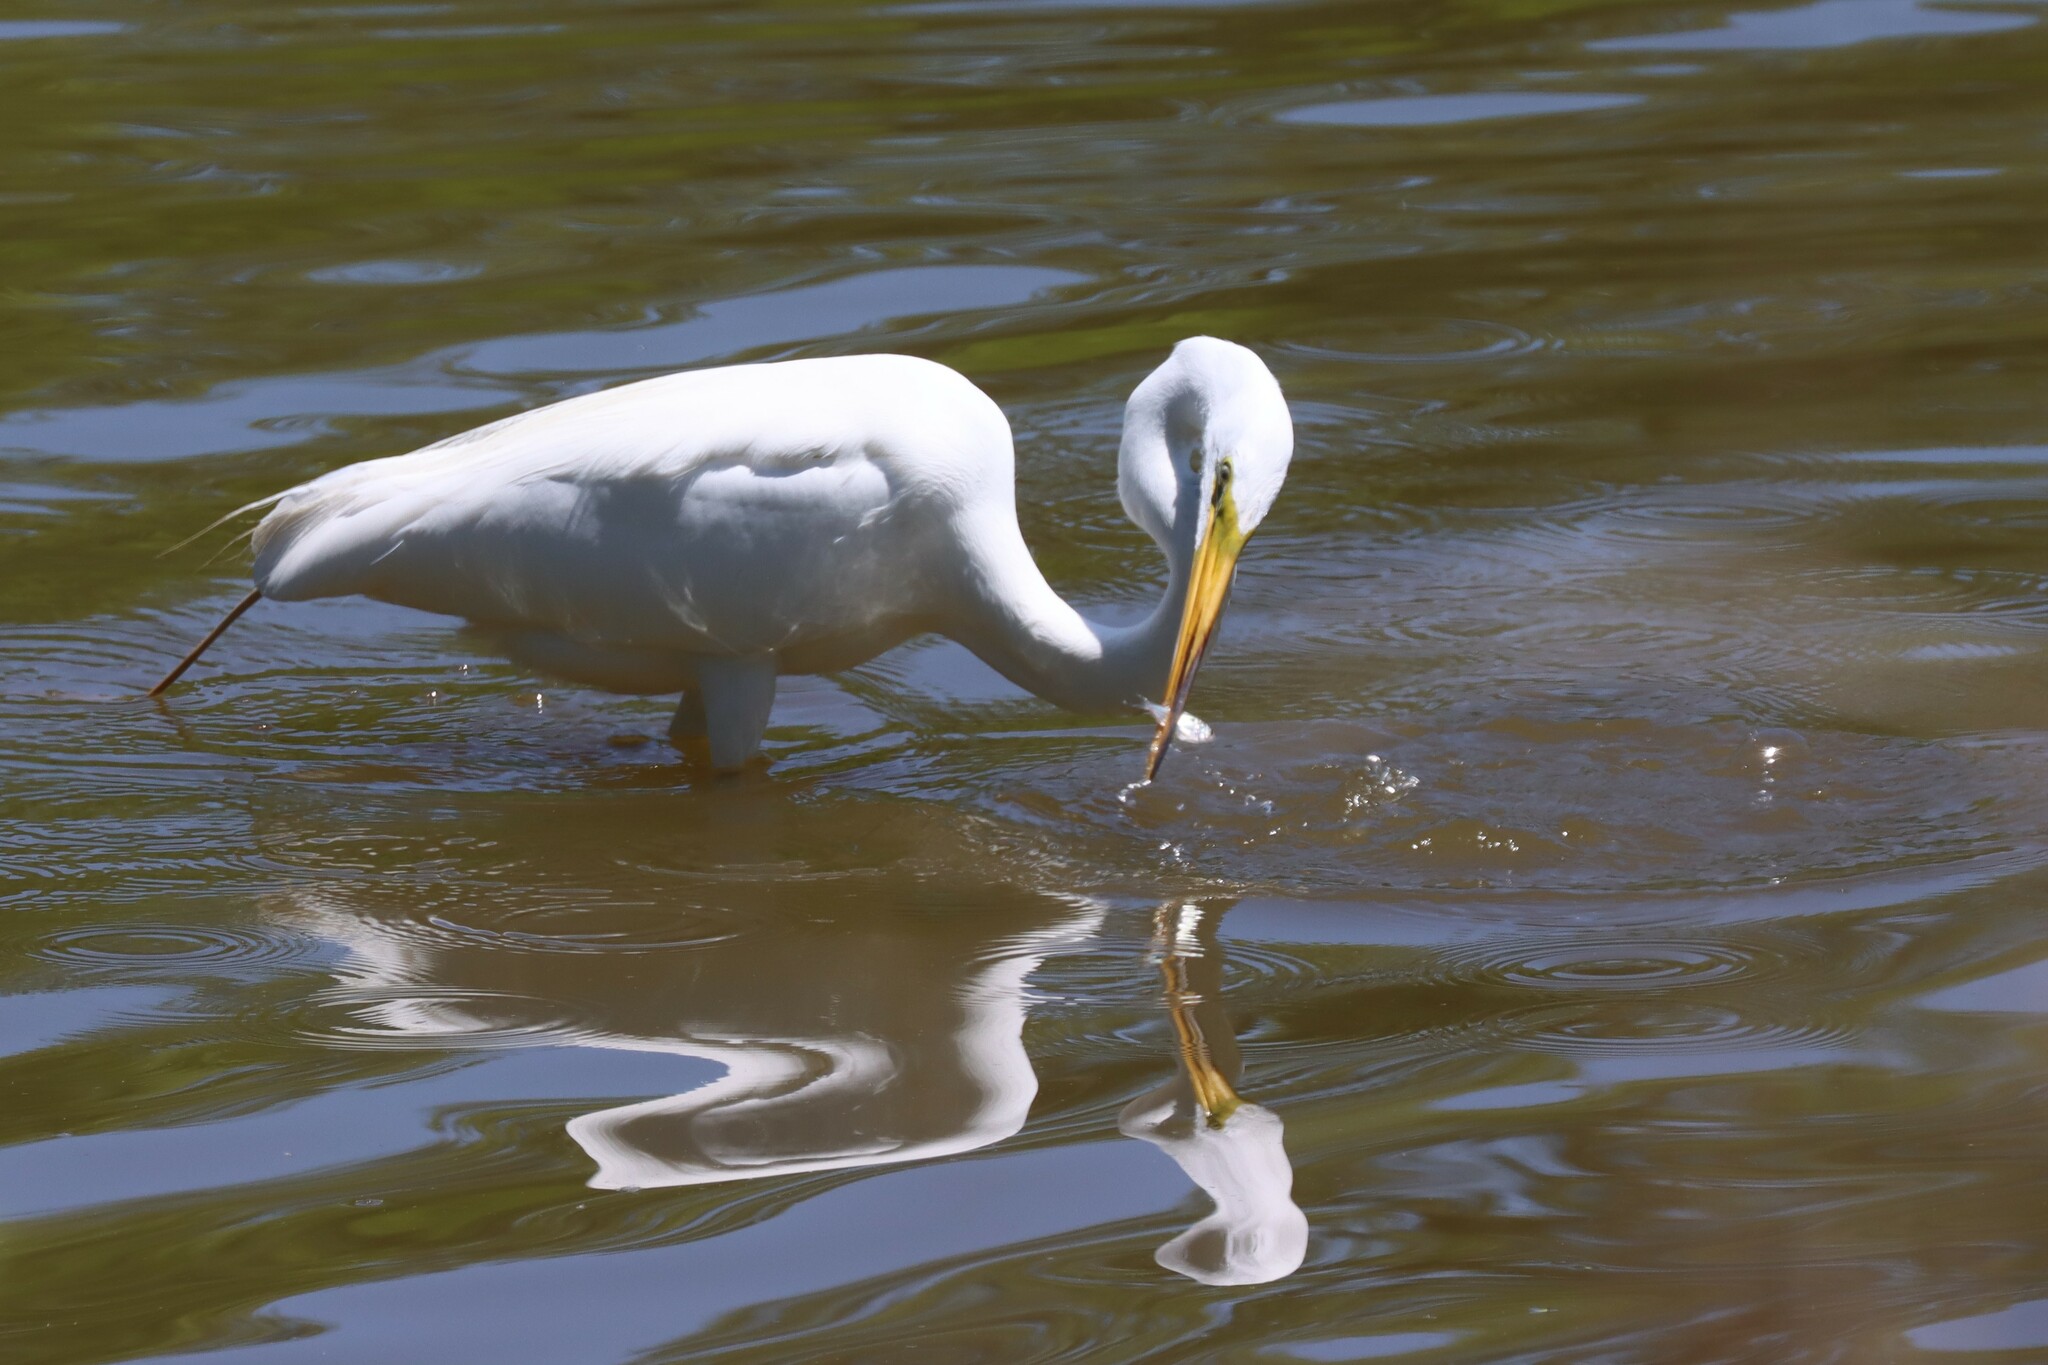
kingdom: Animalia
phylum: Chordata
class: Aves
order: Pelecaniformes
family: Ardeidae
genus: Ardea
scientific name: Ardea alba
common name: Great egret
